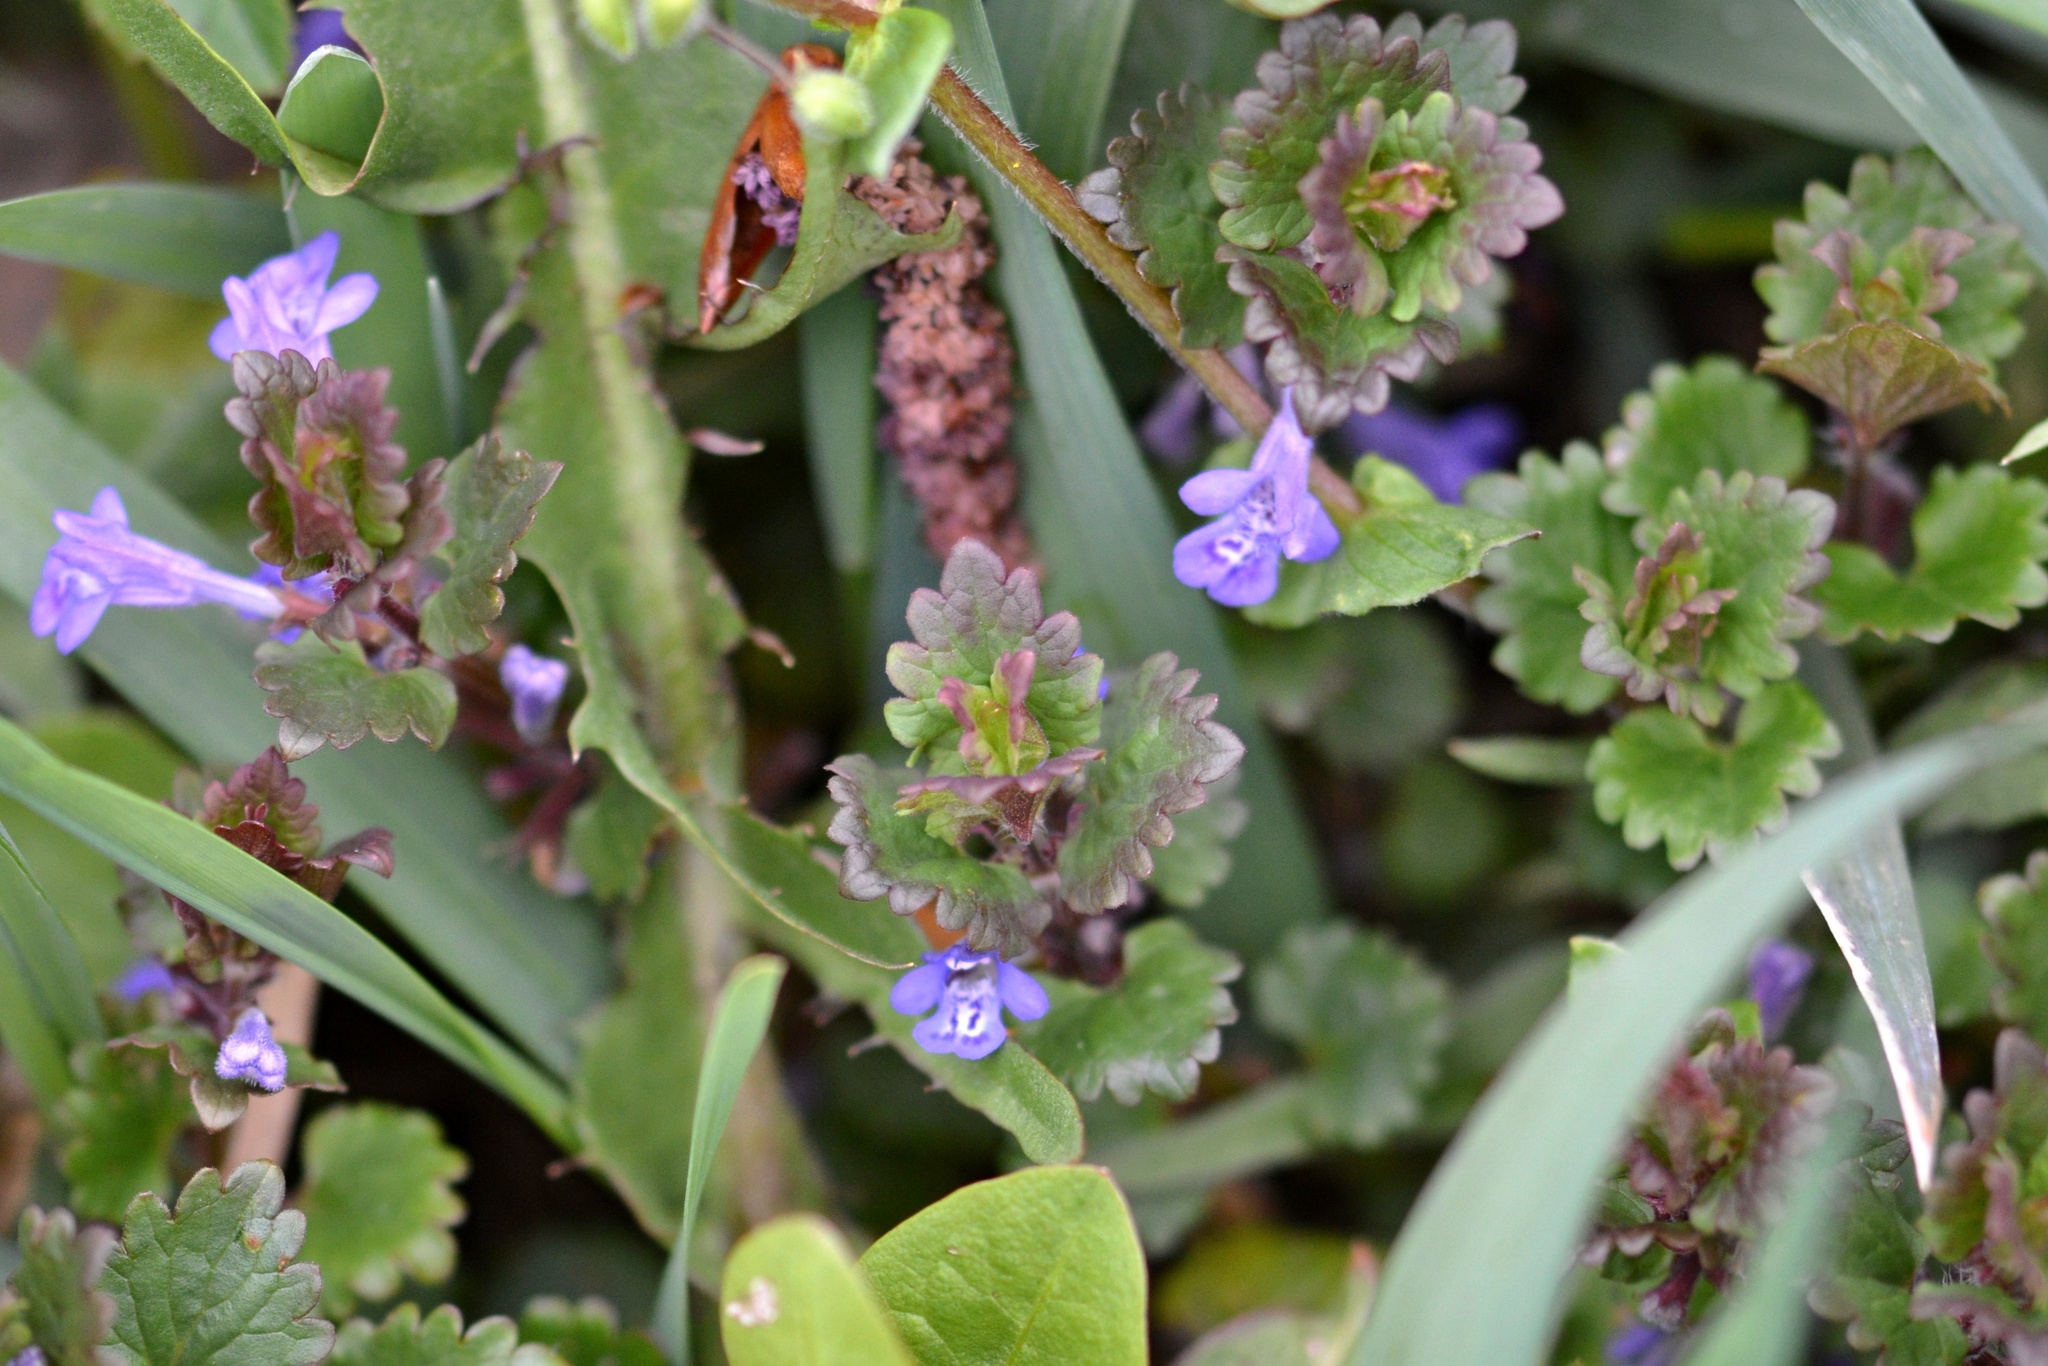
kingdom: Plantae
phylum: Tracheophyta
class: Magnoliopsida
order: Lamiales
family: Lamiaceae
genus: Glechoma
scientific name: Glechoma hederacea
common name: Ground ivy
